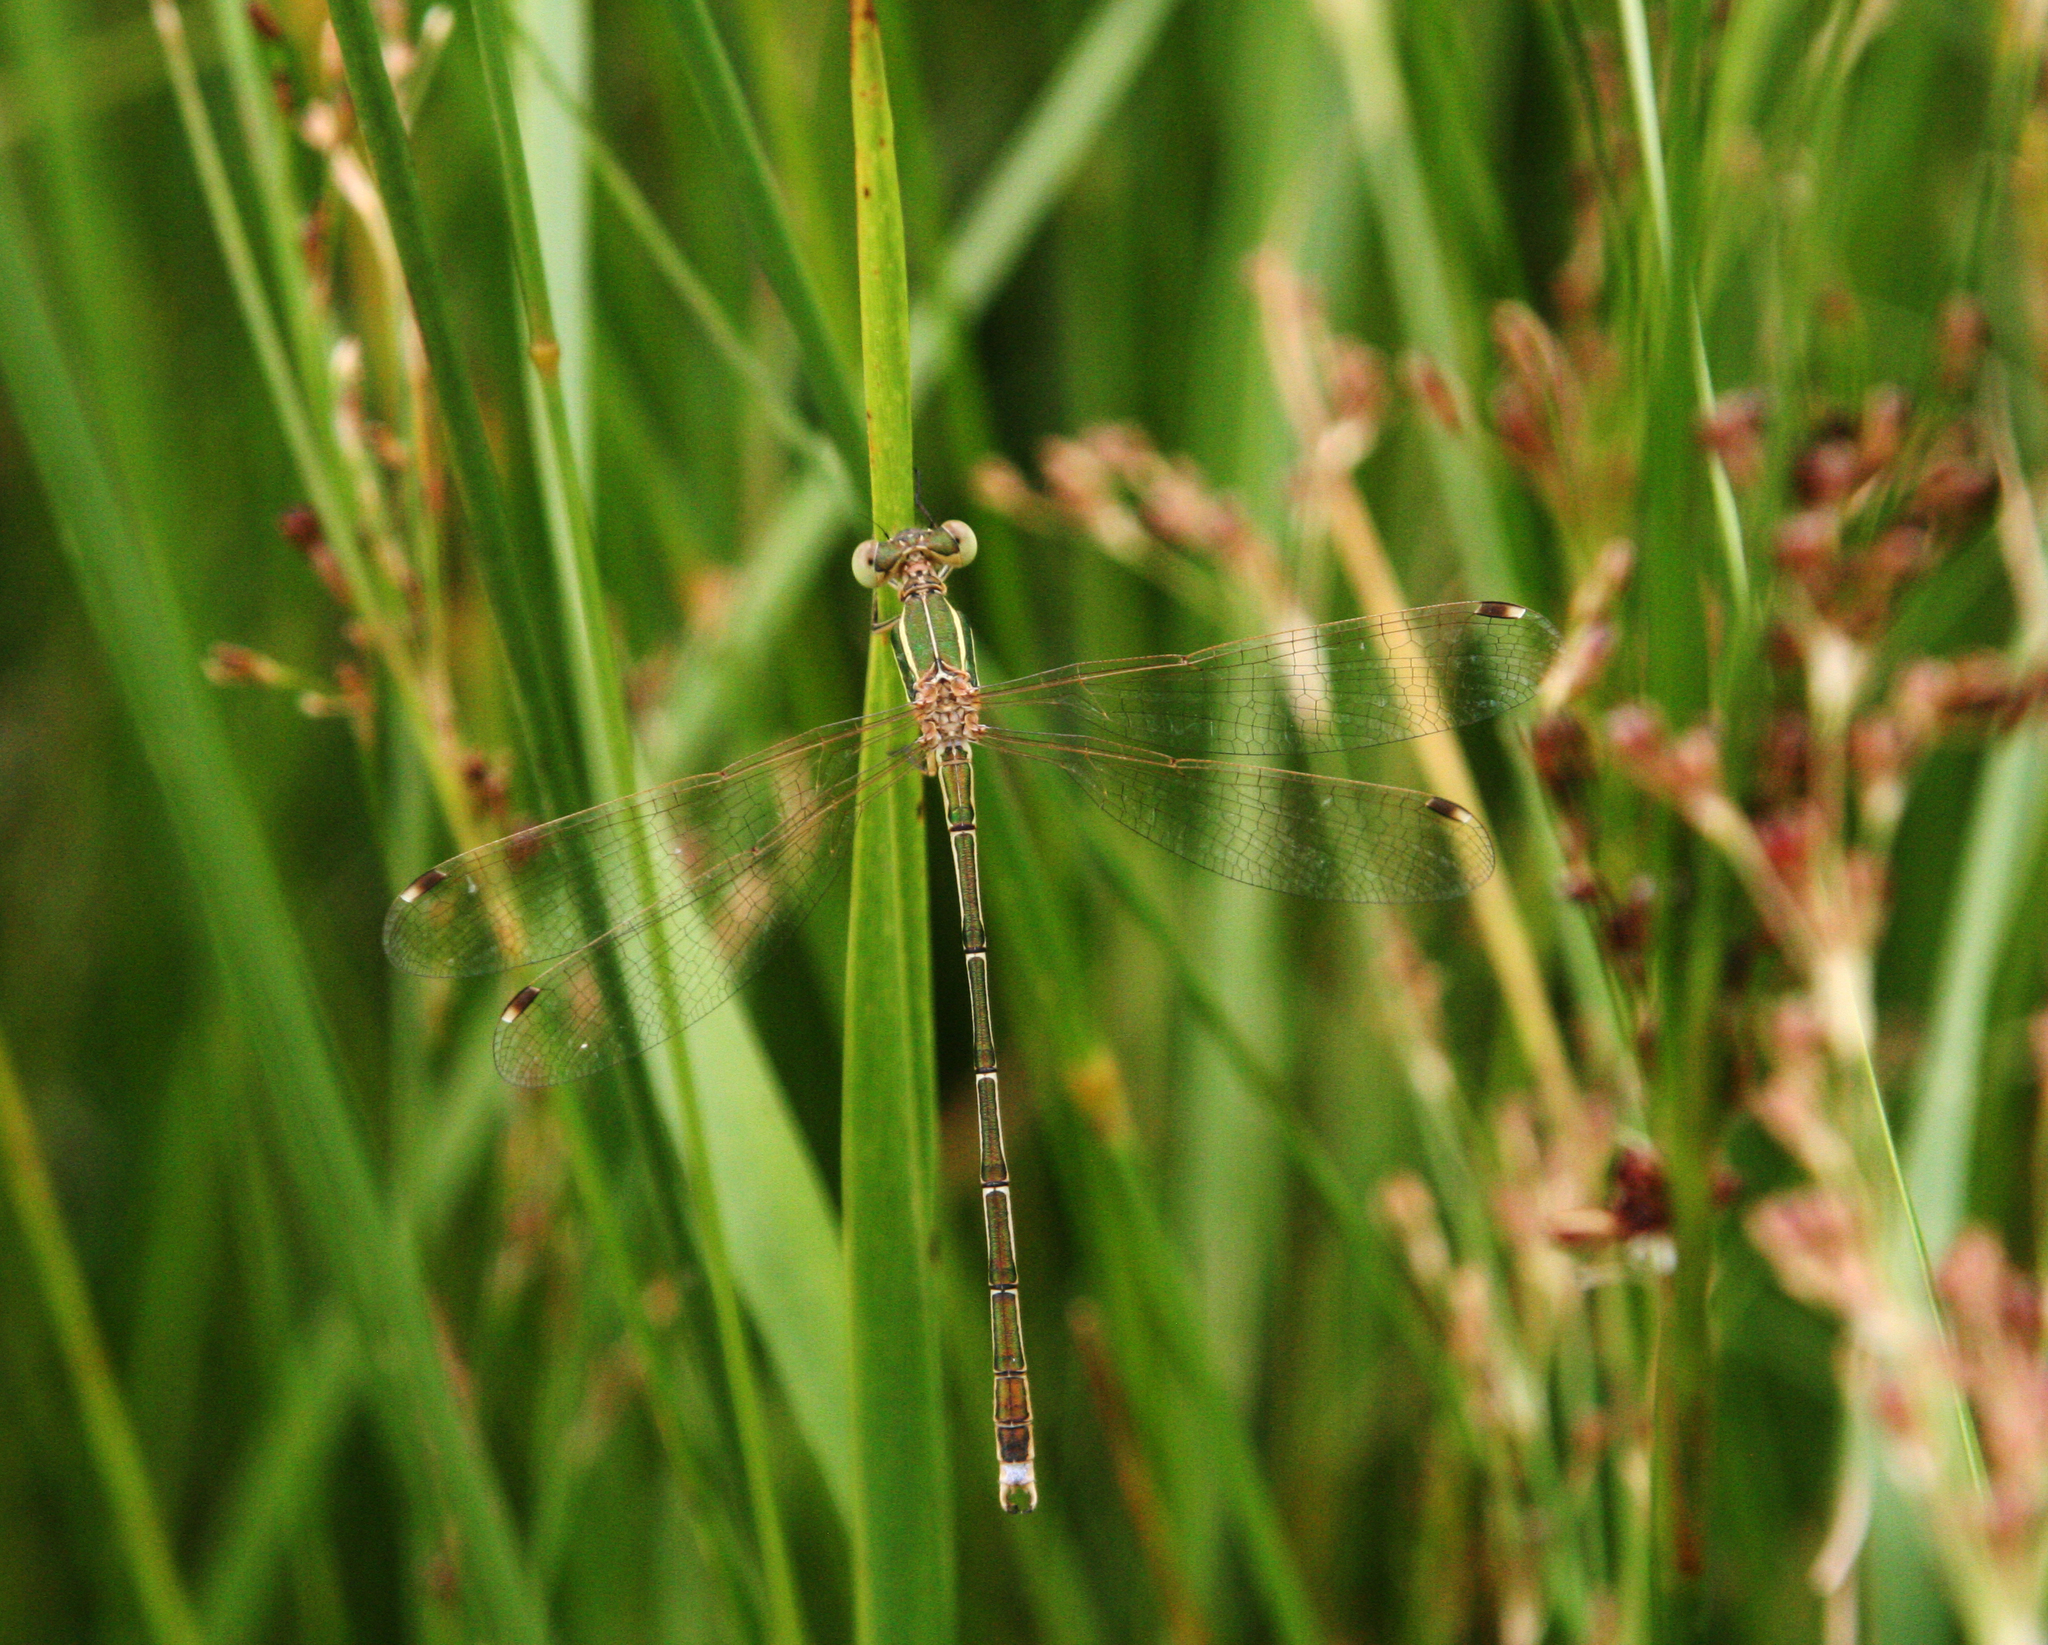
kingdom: Animalia
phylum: Arthropoda
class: Insecta
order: Odonata
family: Lestidae
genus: Lestes
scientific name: Lestes barbarus
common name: Migrant spreadwing
